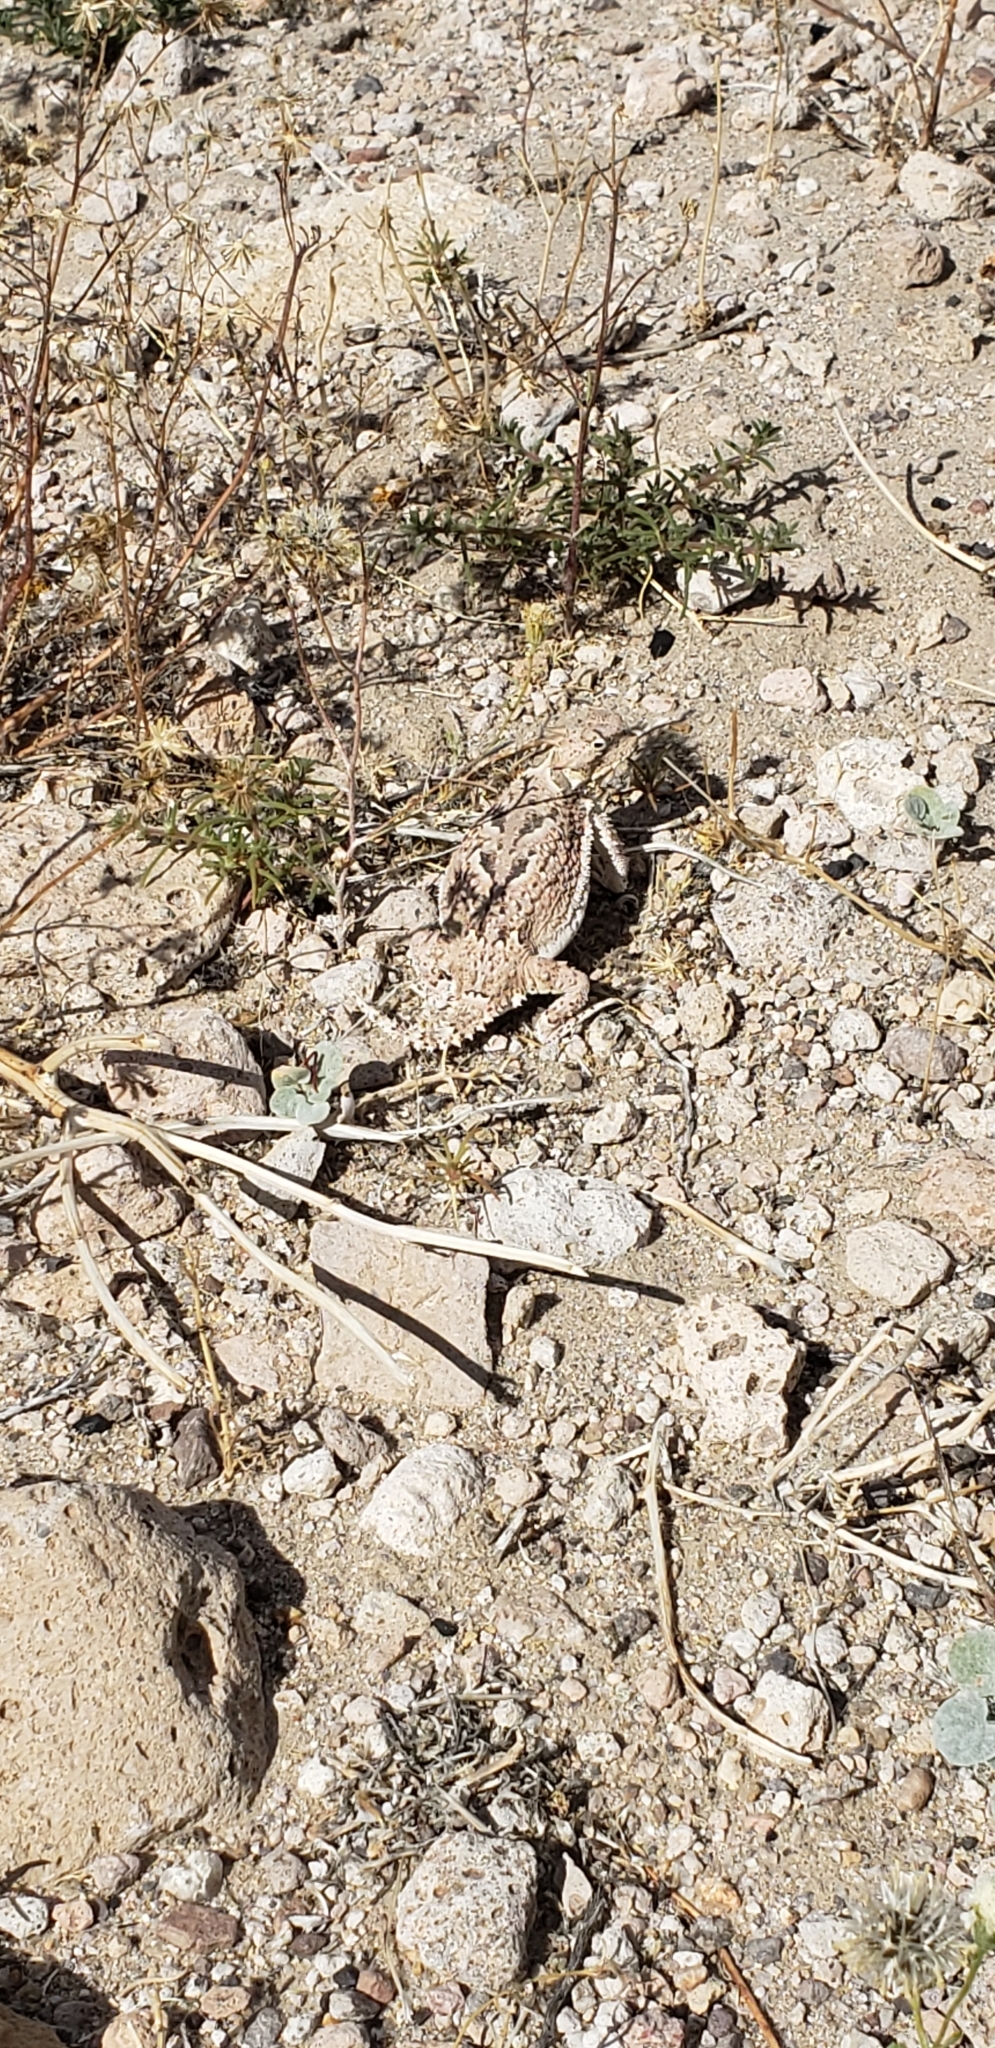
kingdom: Animalia
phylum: Chordata
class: Squamata
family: Phrynosomatidae
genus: Phrynosoma
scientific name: Phrynosoma platyrhinos
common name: Desert horned lizard
